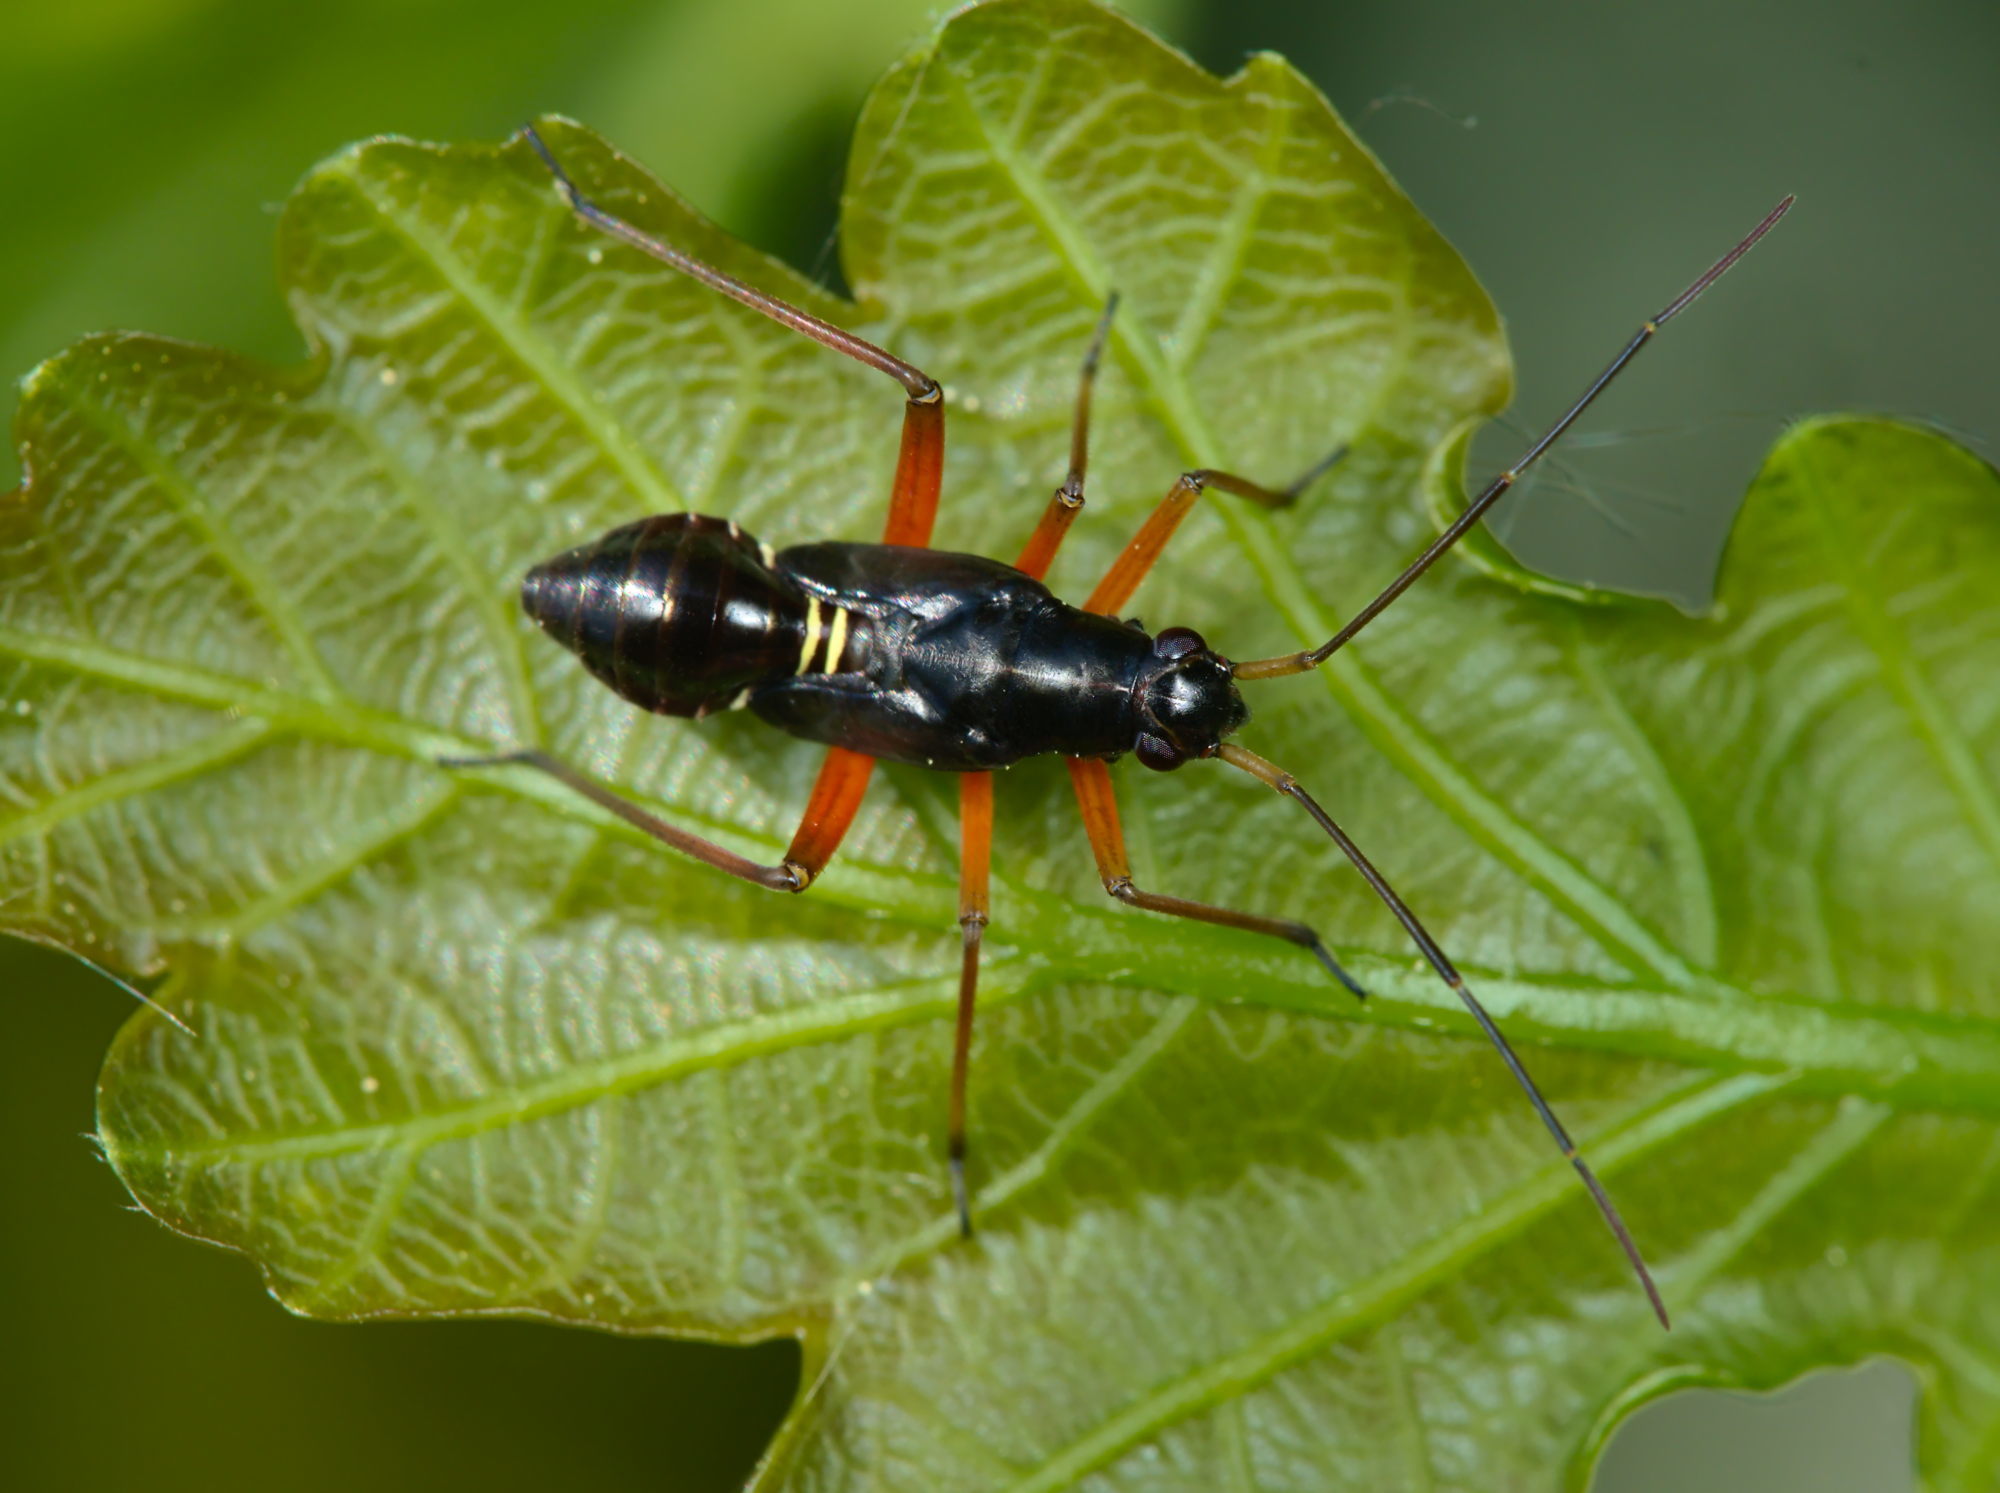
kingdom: Animalia
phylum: Arthropoda
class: Insecta
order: Hemiptera
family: Miridae
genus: Miris
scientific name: Miris striatus
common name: Fine streaked bugkin
